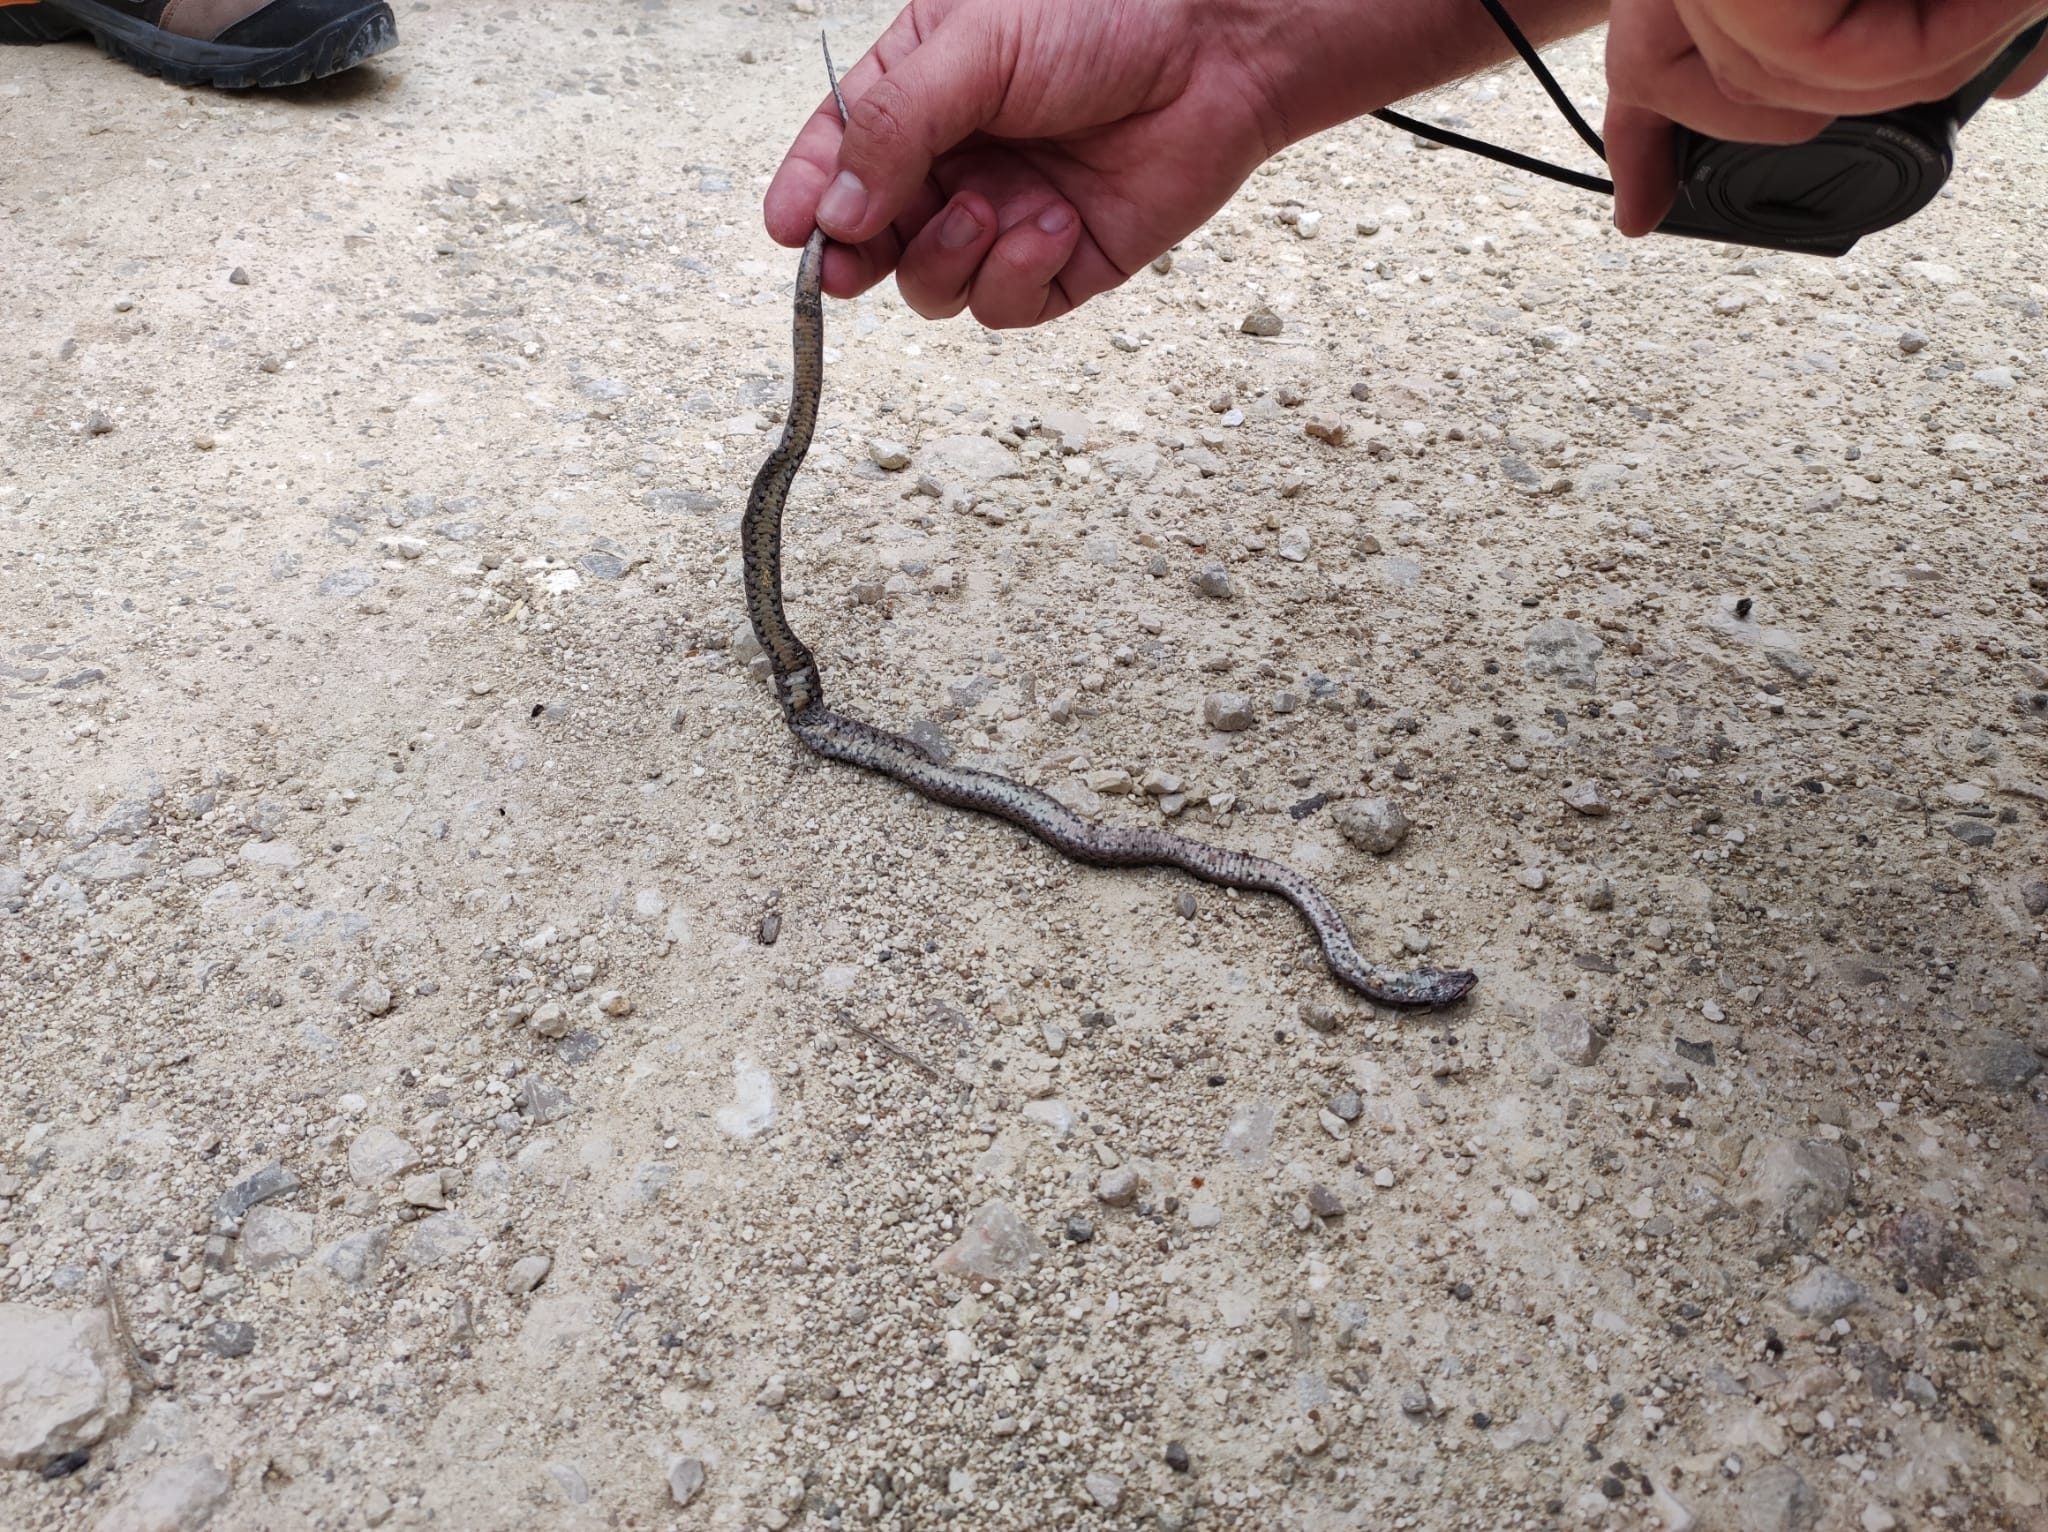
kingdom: Animalia
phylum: Chordata
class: Squamata
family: Colubridae
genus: Coronella
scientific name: Coronella girondica
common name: Southern smooth snake
